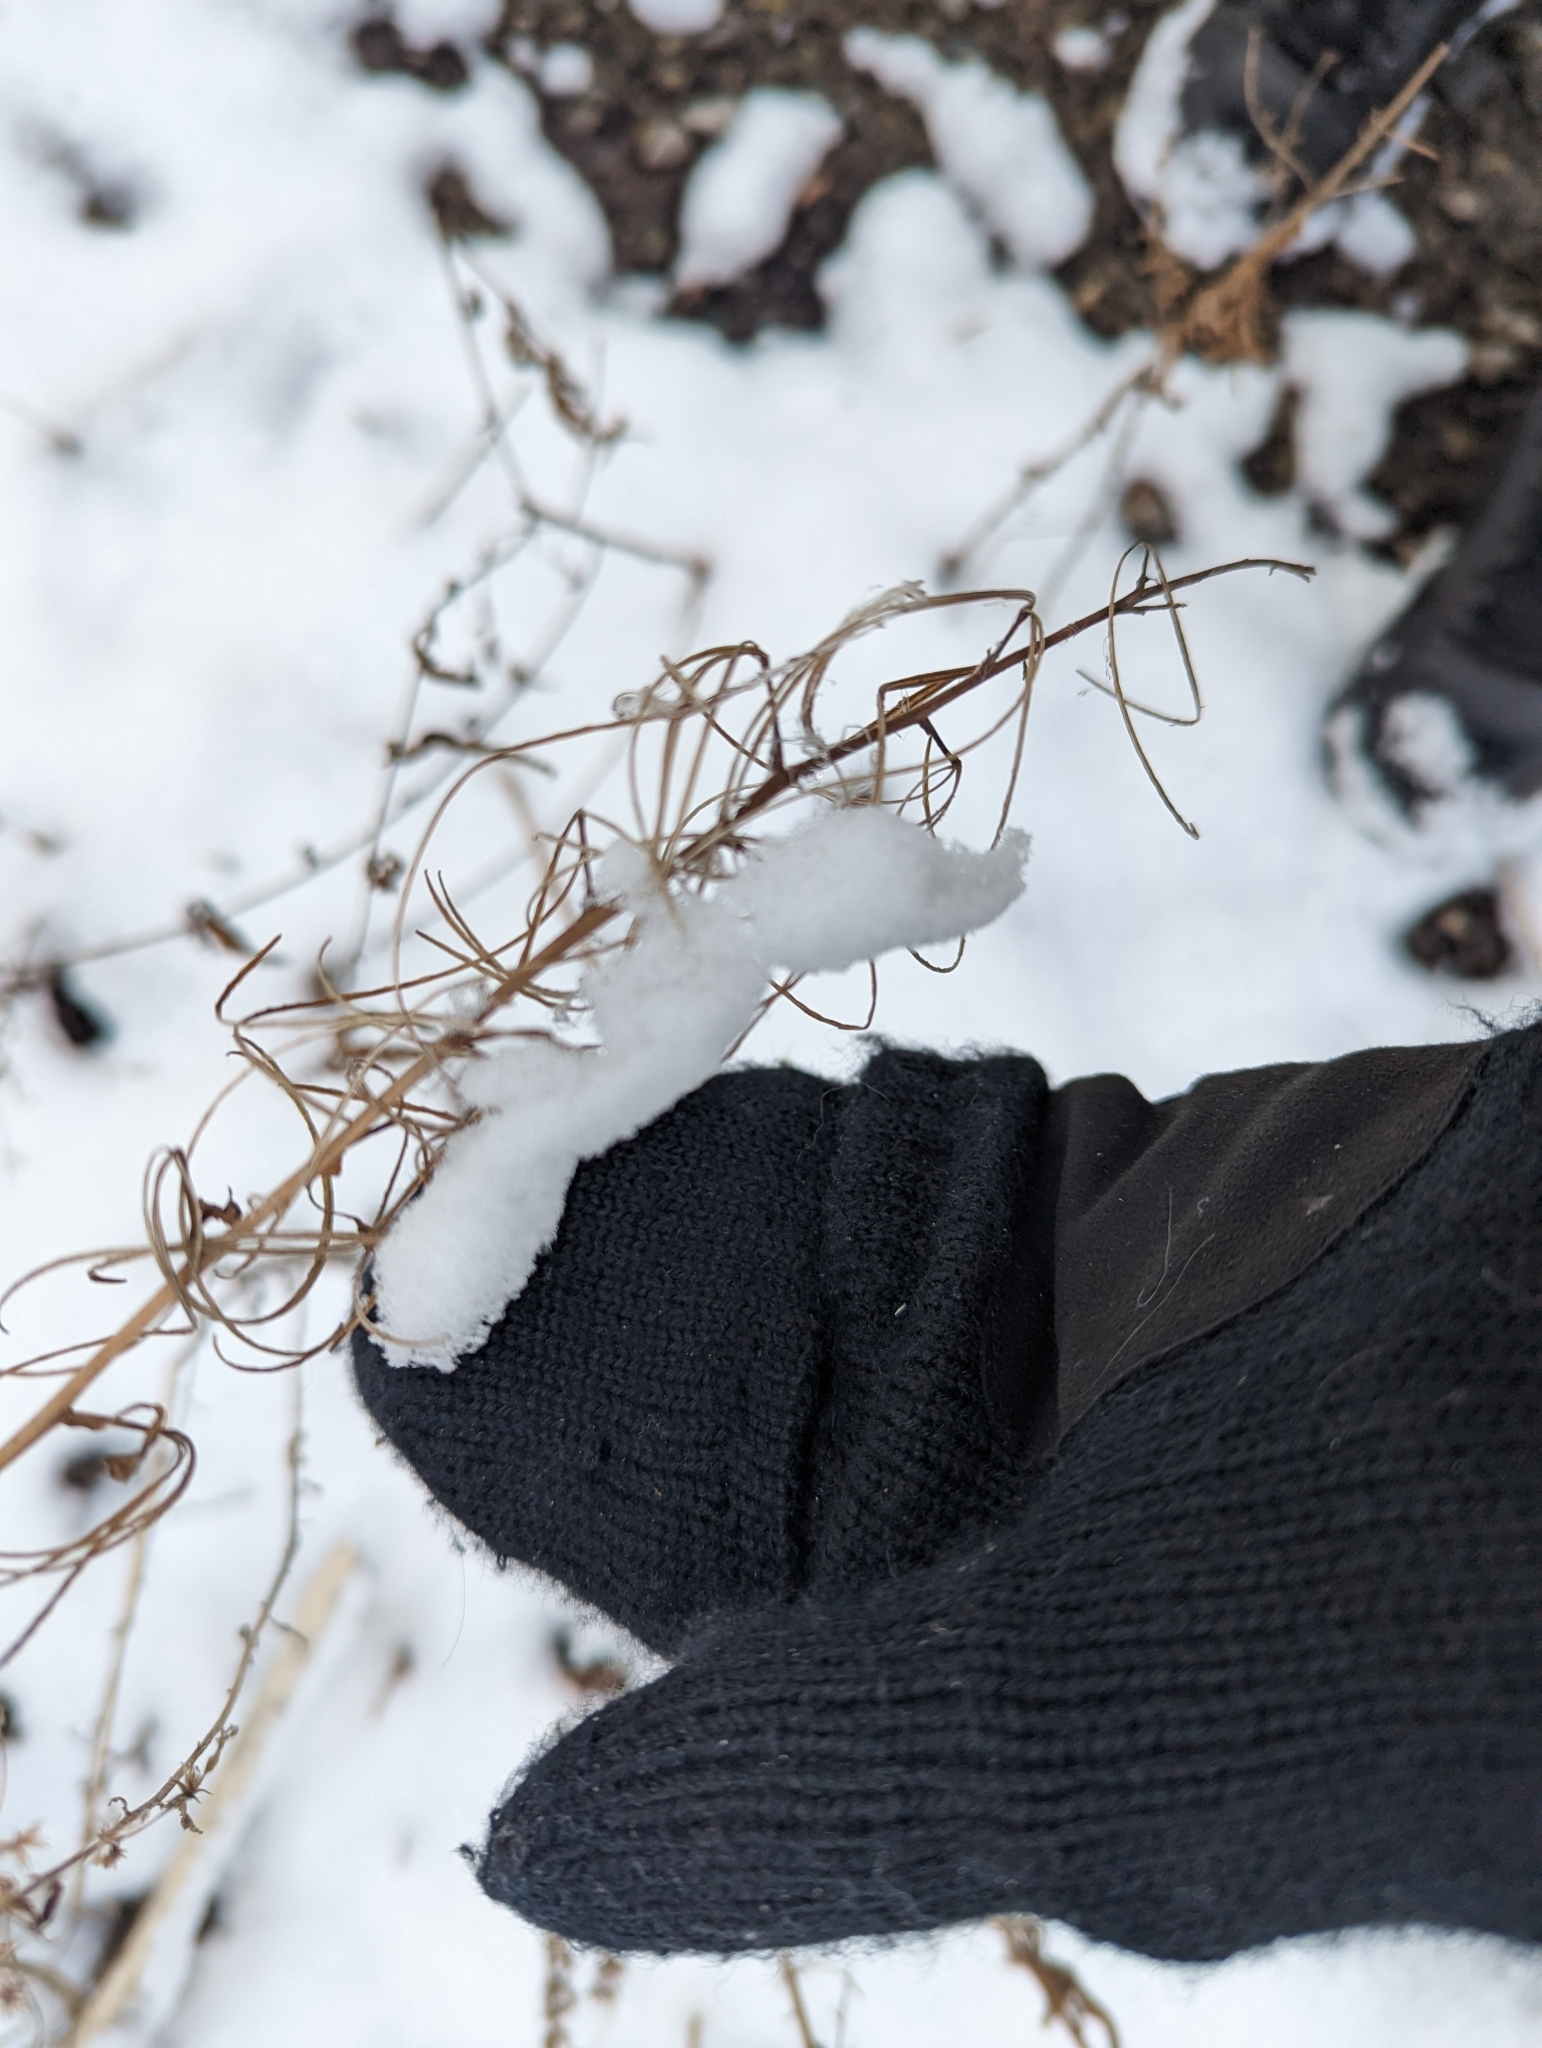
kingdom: Plantae
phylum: Tracheophyta
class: Magnoliopsida
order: Myrtales
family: Onagraceae
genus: Epilobium
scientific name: Epilobium coloratum
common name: Bronze willowherb
